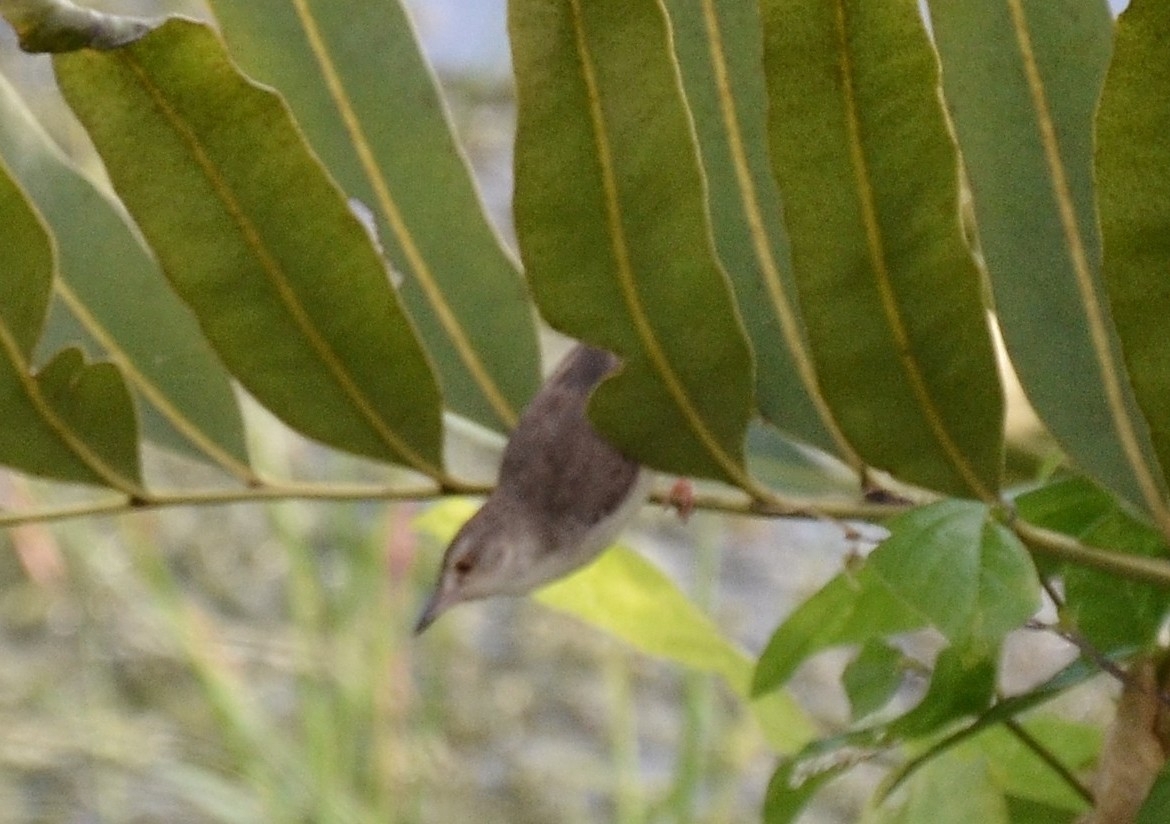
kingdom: Animalia
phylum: Chordata
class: Aves
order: Passeriformes
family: Cisticolidae
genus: Prinia
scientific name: Prinia inornata
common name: Plain prinia
